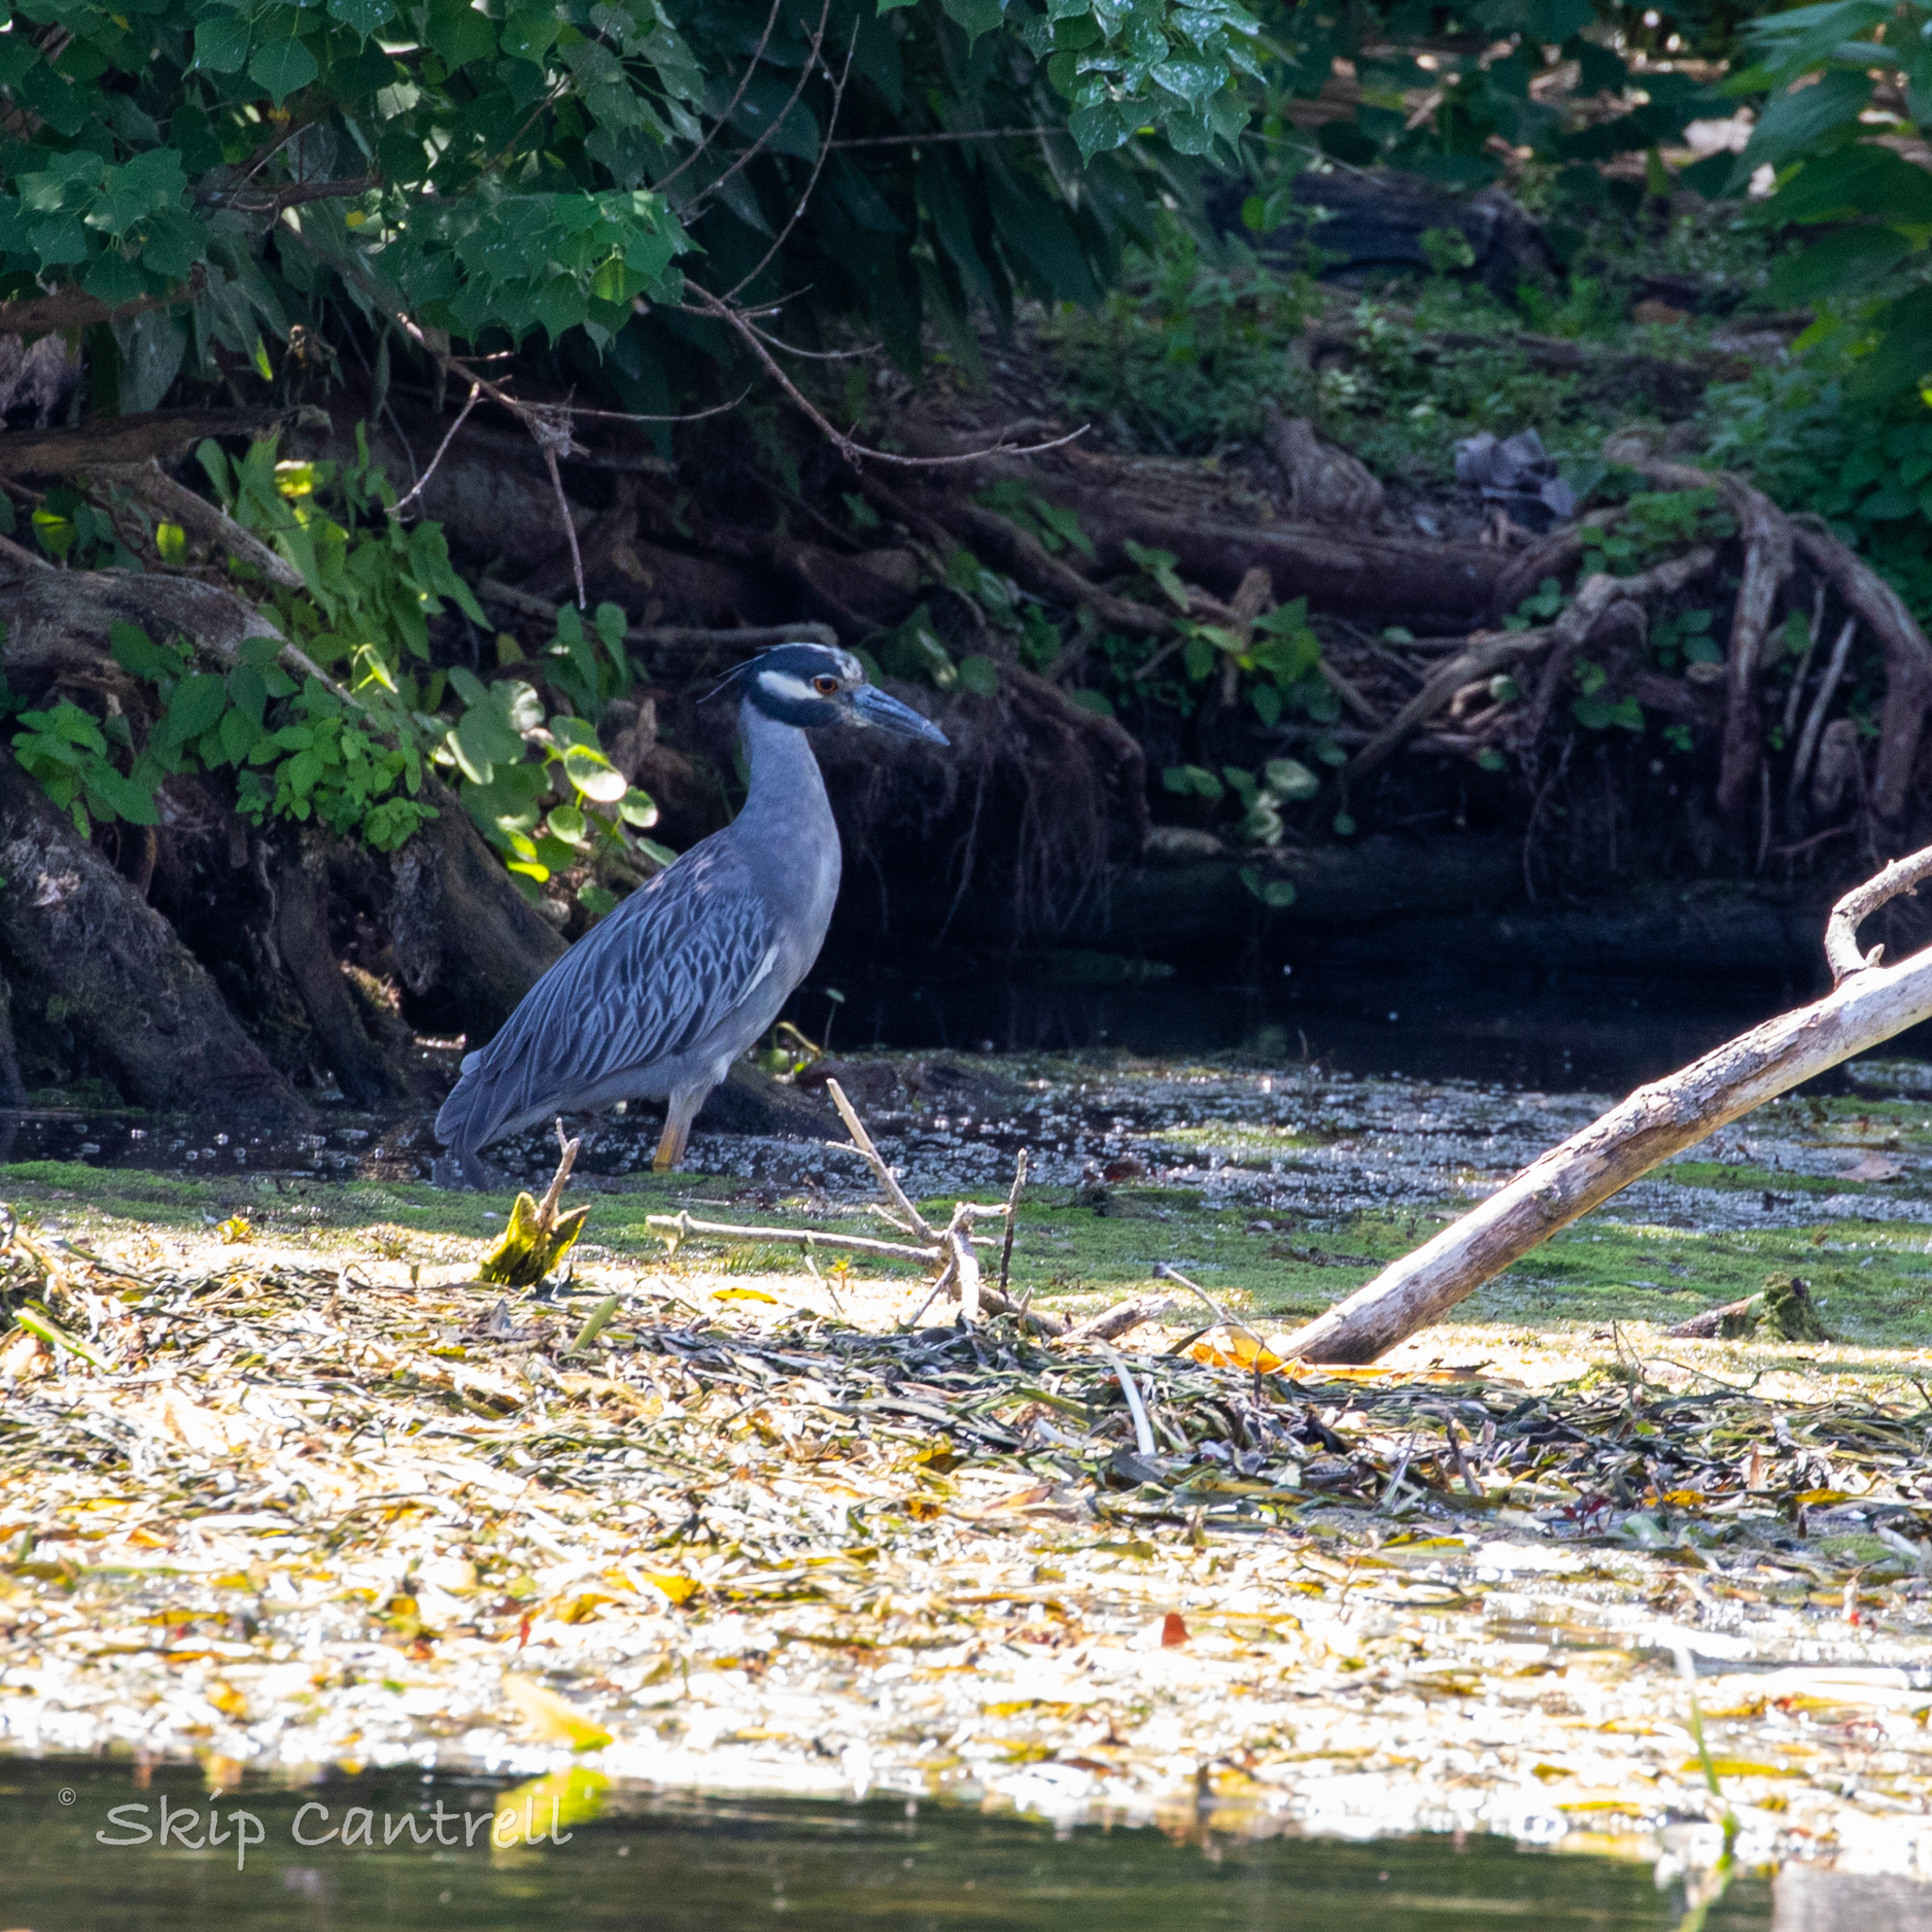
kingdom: Animalia
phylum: Chordata
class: Aves
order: Pelecaniformes
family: Ardeidae
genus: Nyctanassa
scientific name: Nyctanassa violacea
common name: Yellow-crowned night heron
